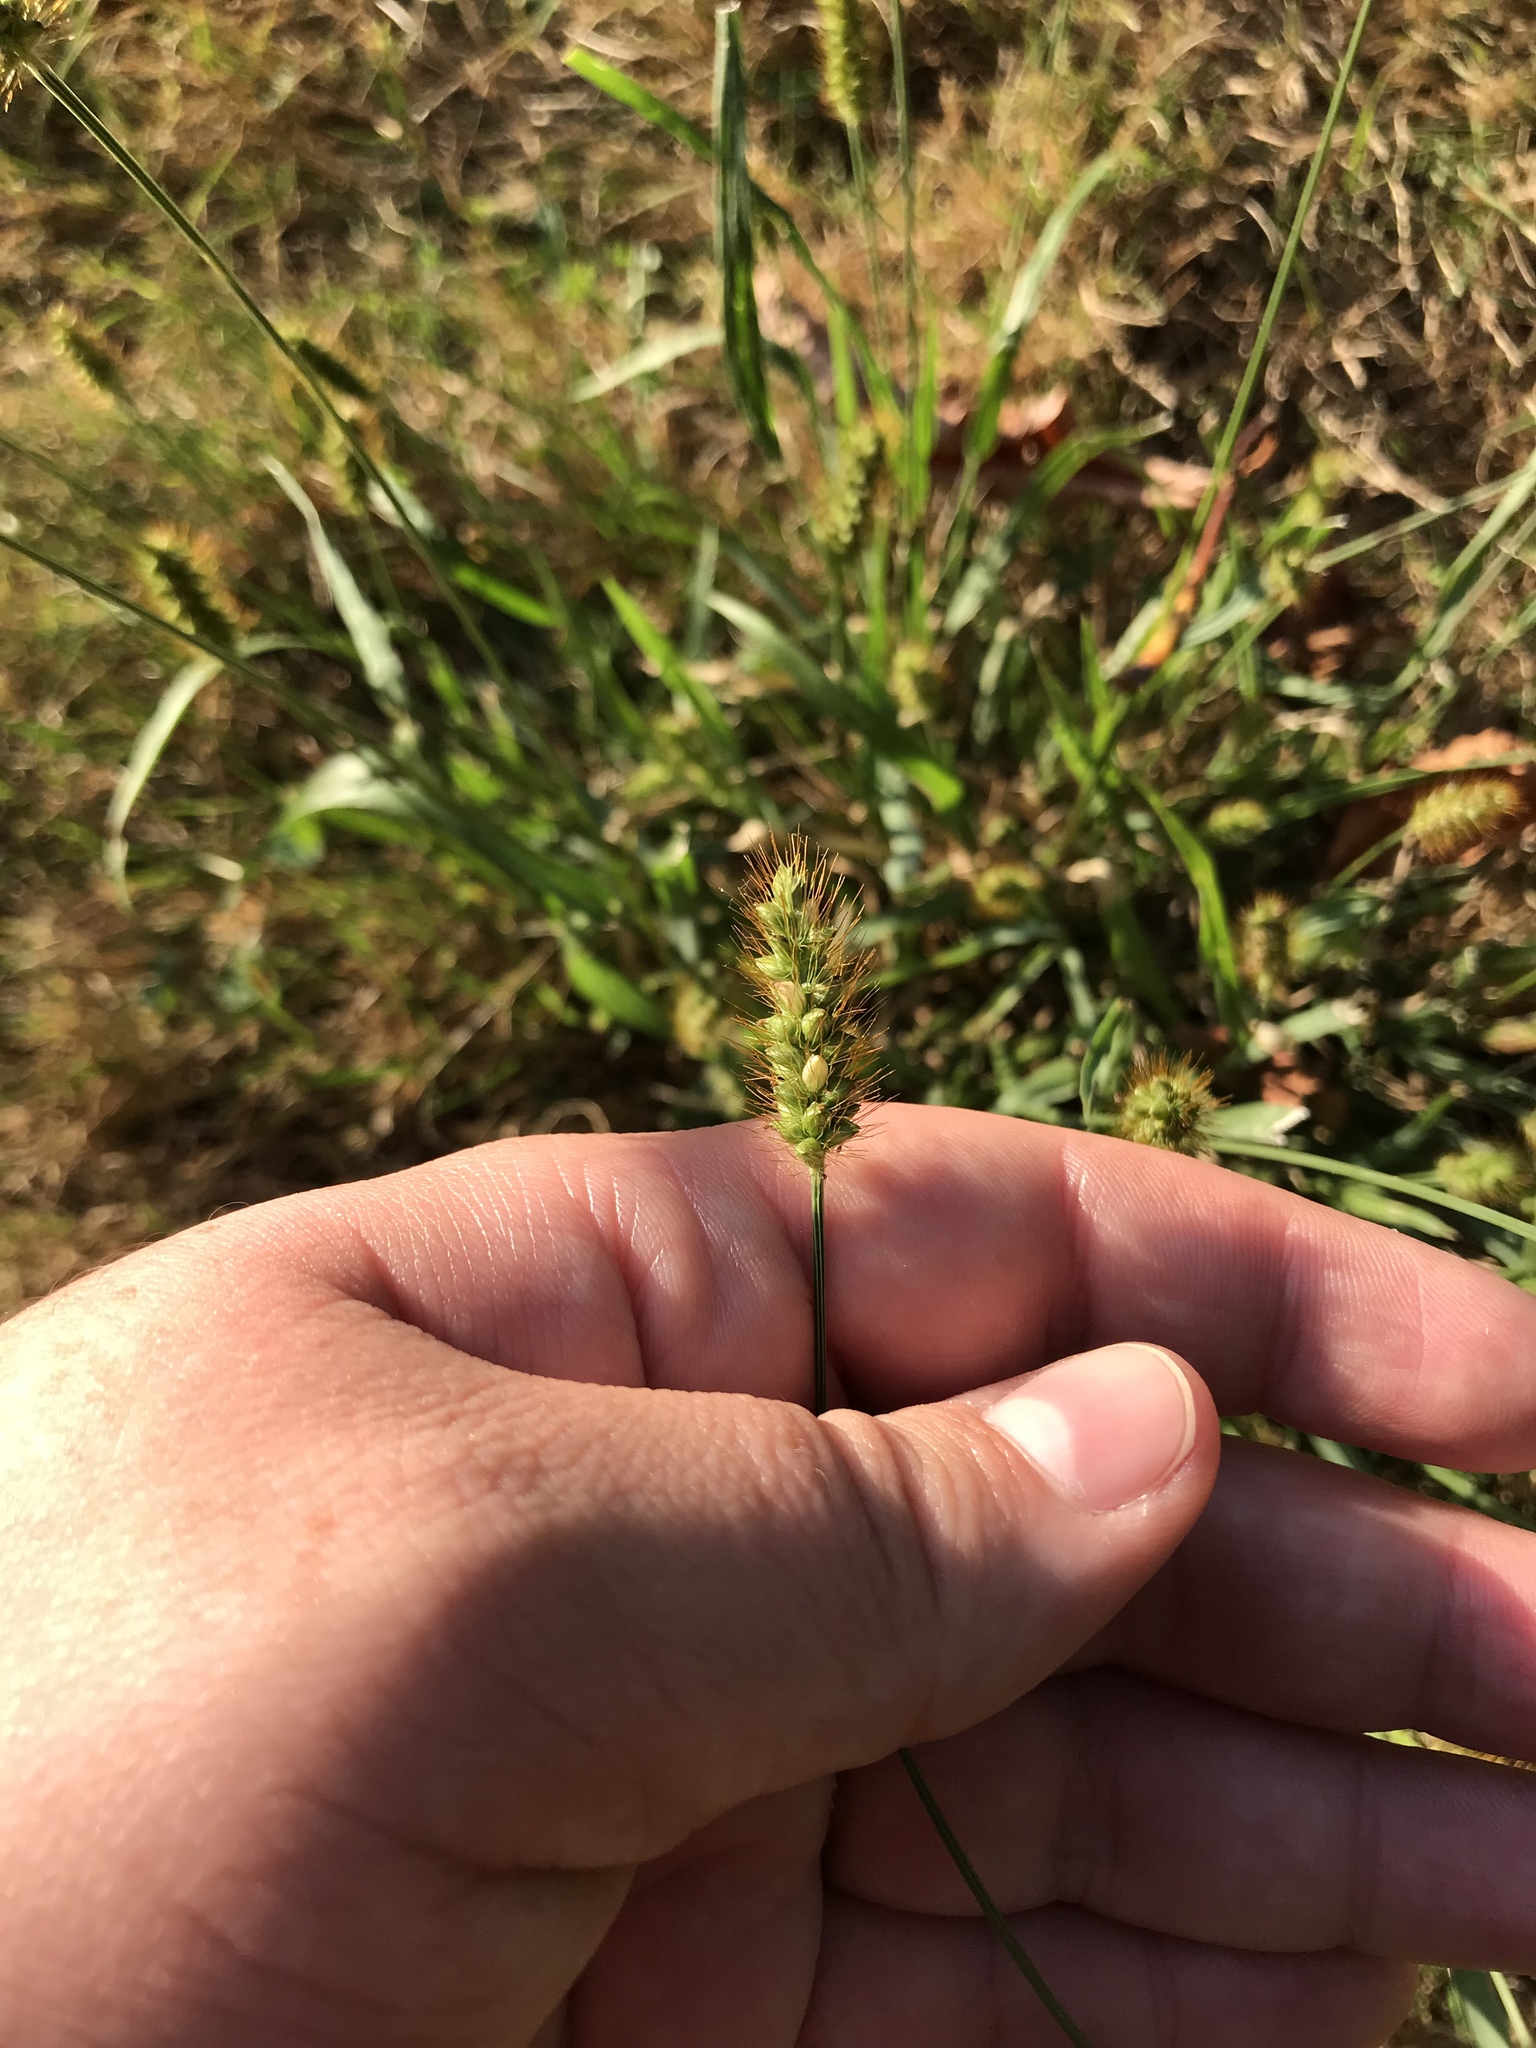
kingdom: Plantae
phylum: Tracheophyta
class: Liliopsida
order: Poales
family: Poaceae
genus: Setaria
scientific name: Setaria pumila
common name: Yellow bristle-grass
